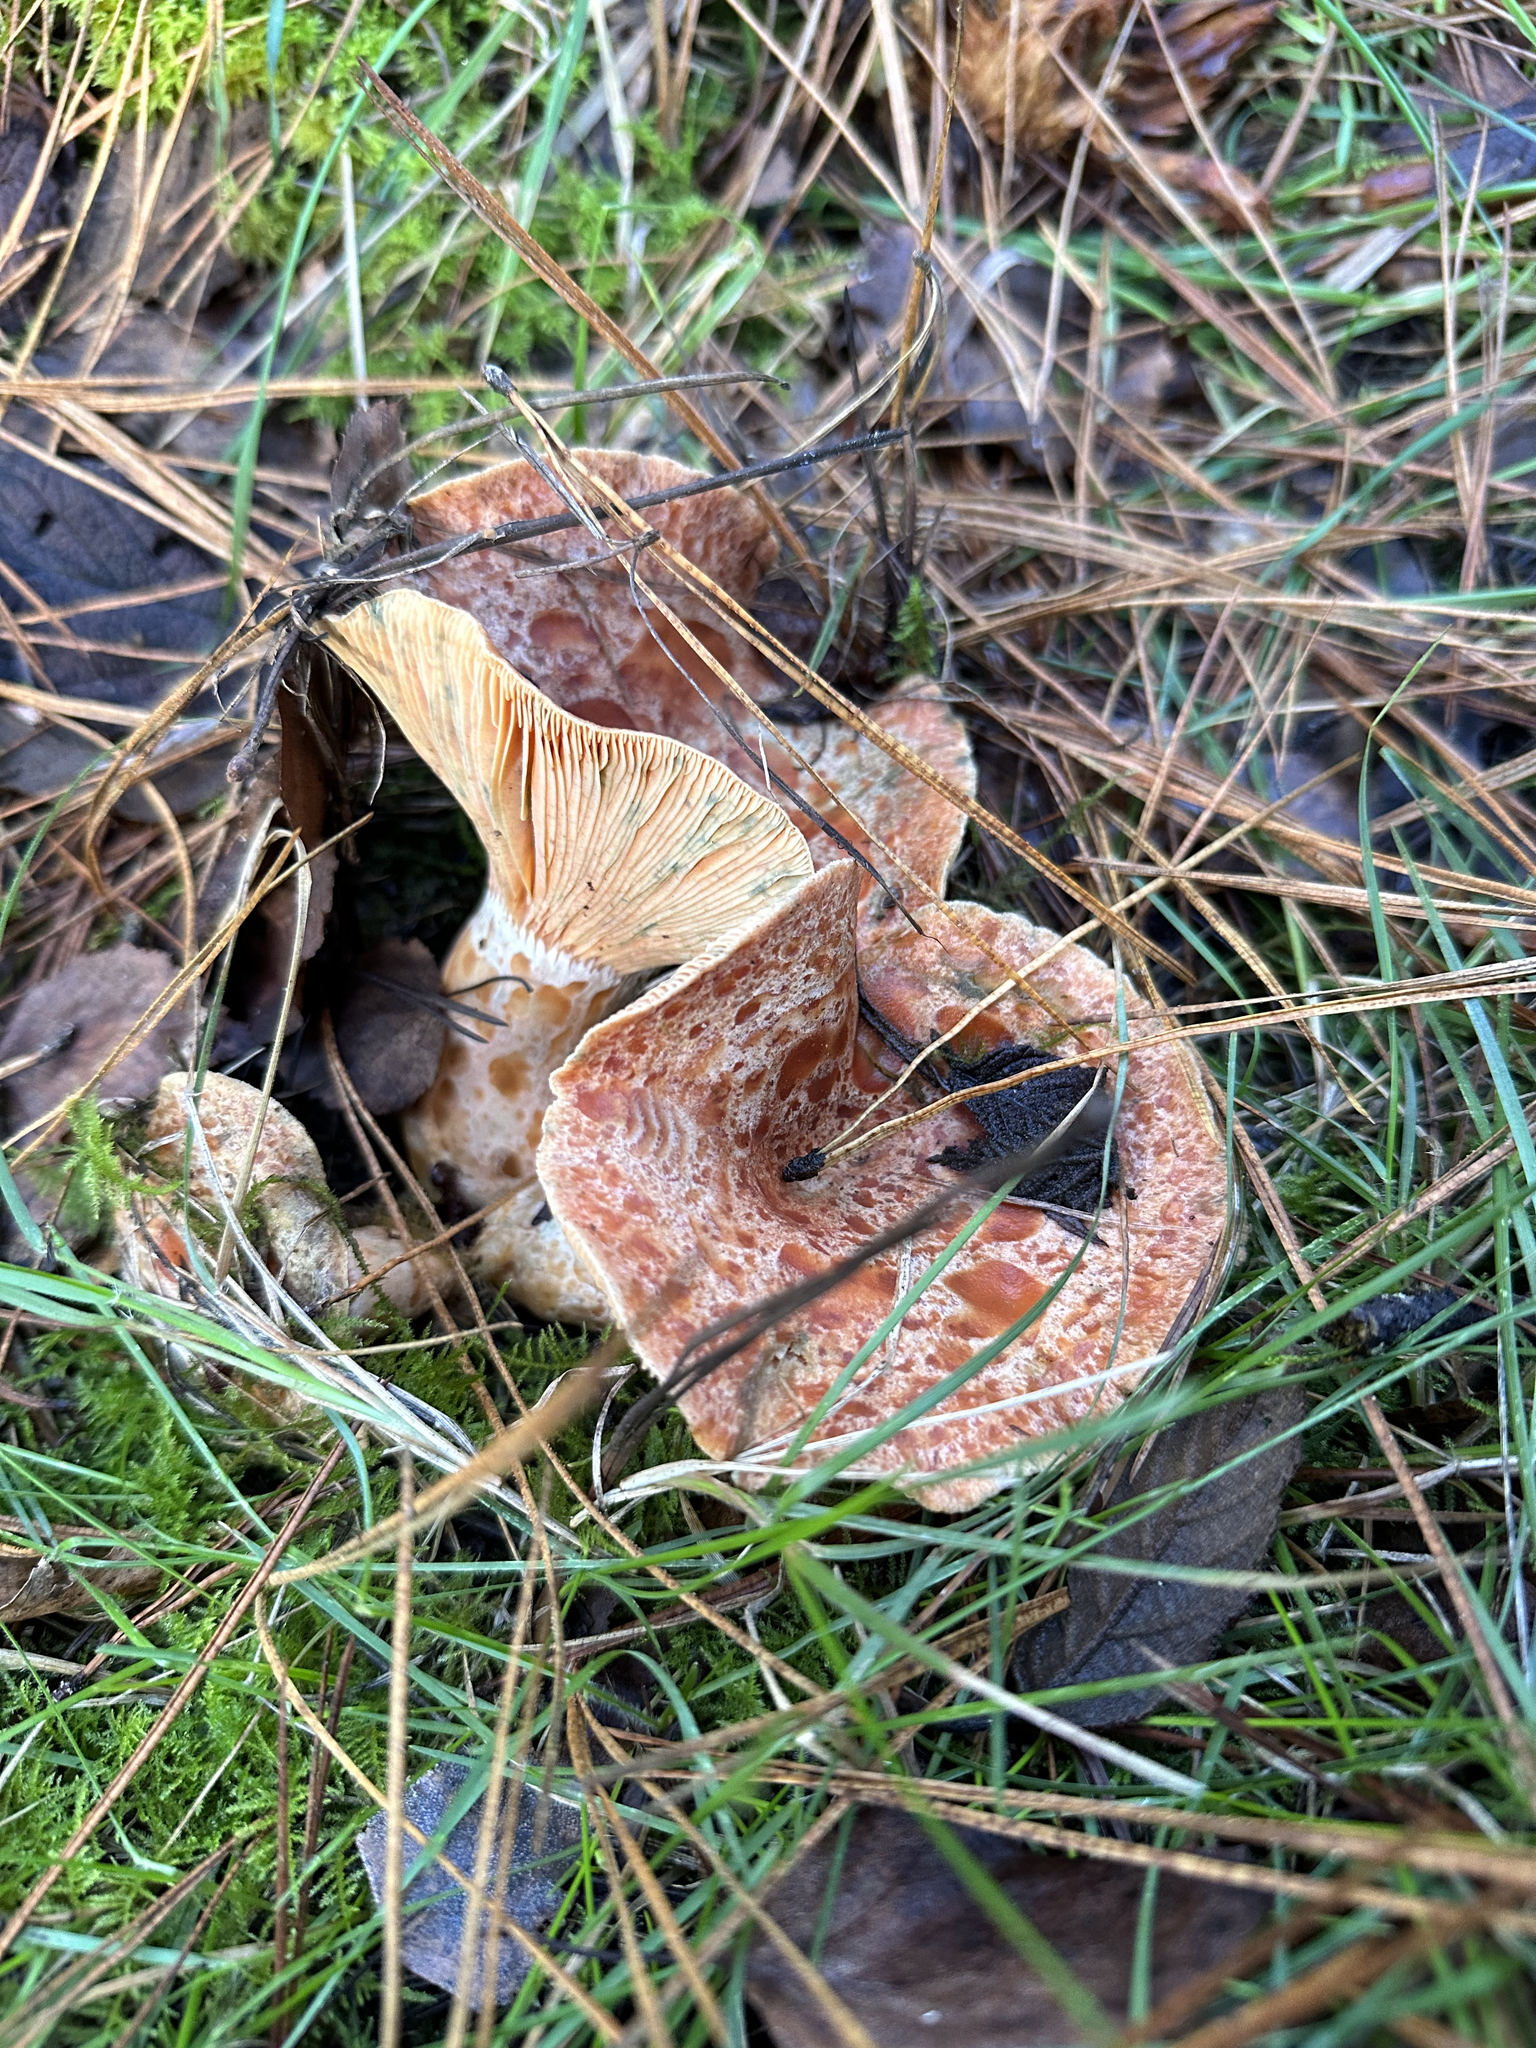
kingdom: Fungi
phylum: Basidiomycota
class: Agaricomycetes
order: Russulales
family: Russulaceae
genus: Lactarius
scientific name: Lactarius deliciosus
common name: Saffron milk-cap
